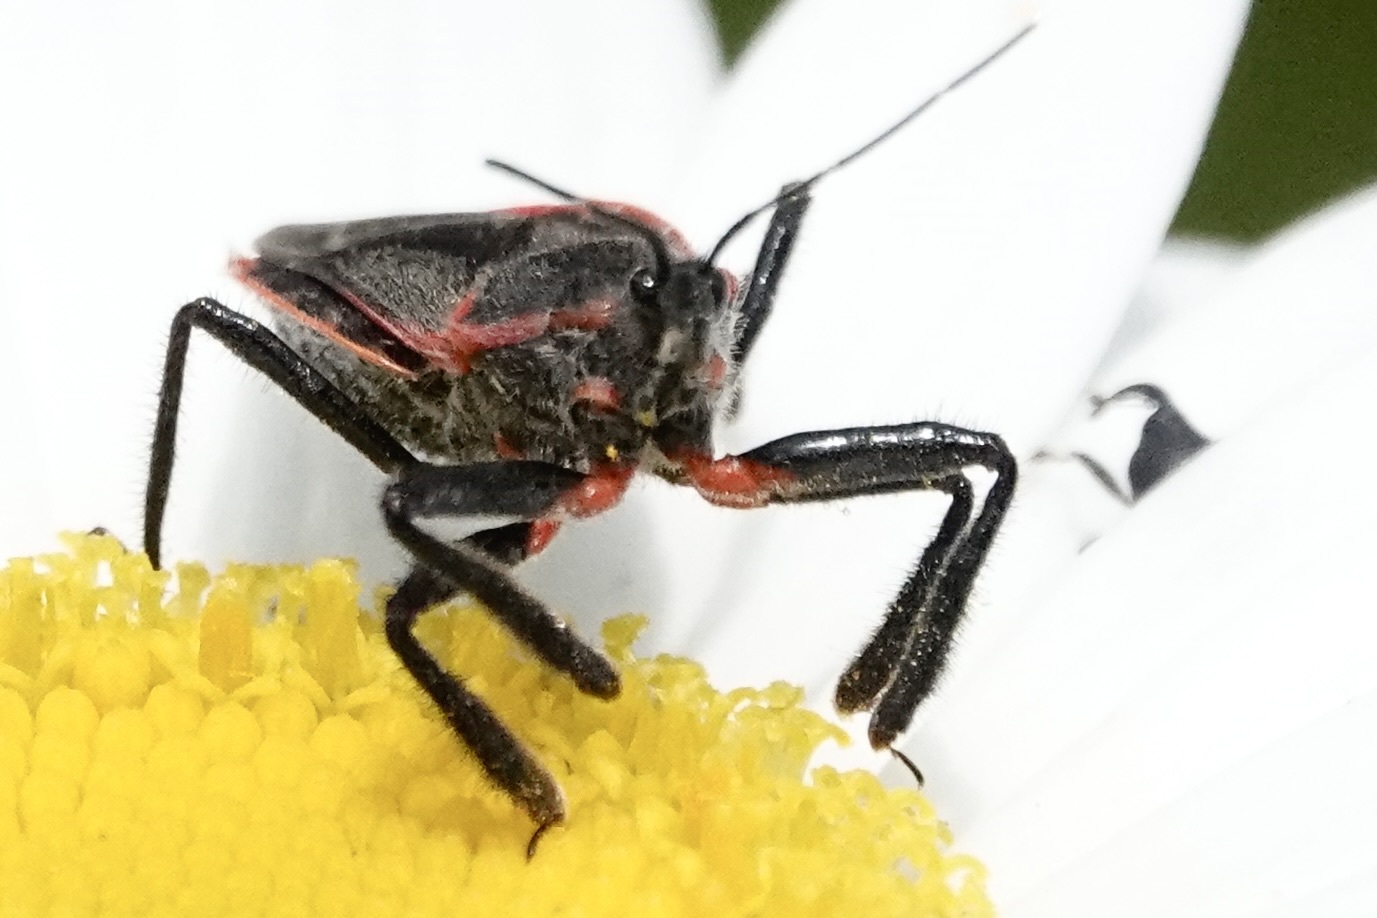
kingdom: Animalia
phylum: Arthropoda
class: Insecta
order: Hemiptera
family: Reduviidae
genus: Apiomerus
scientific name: Apiomerus crassipes
